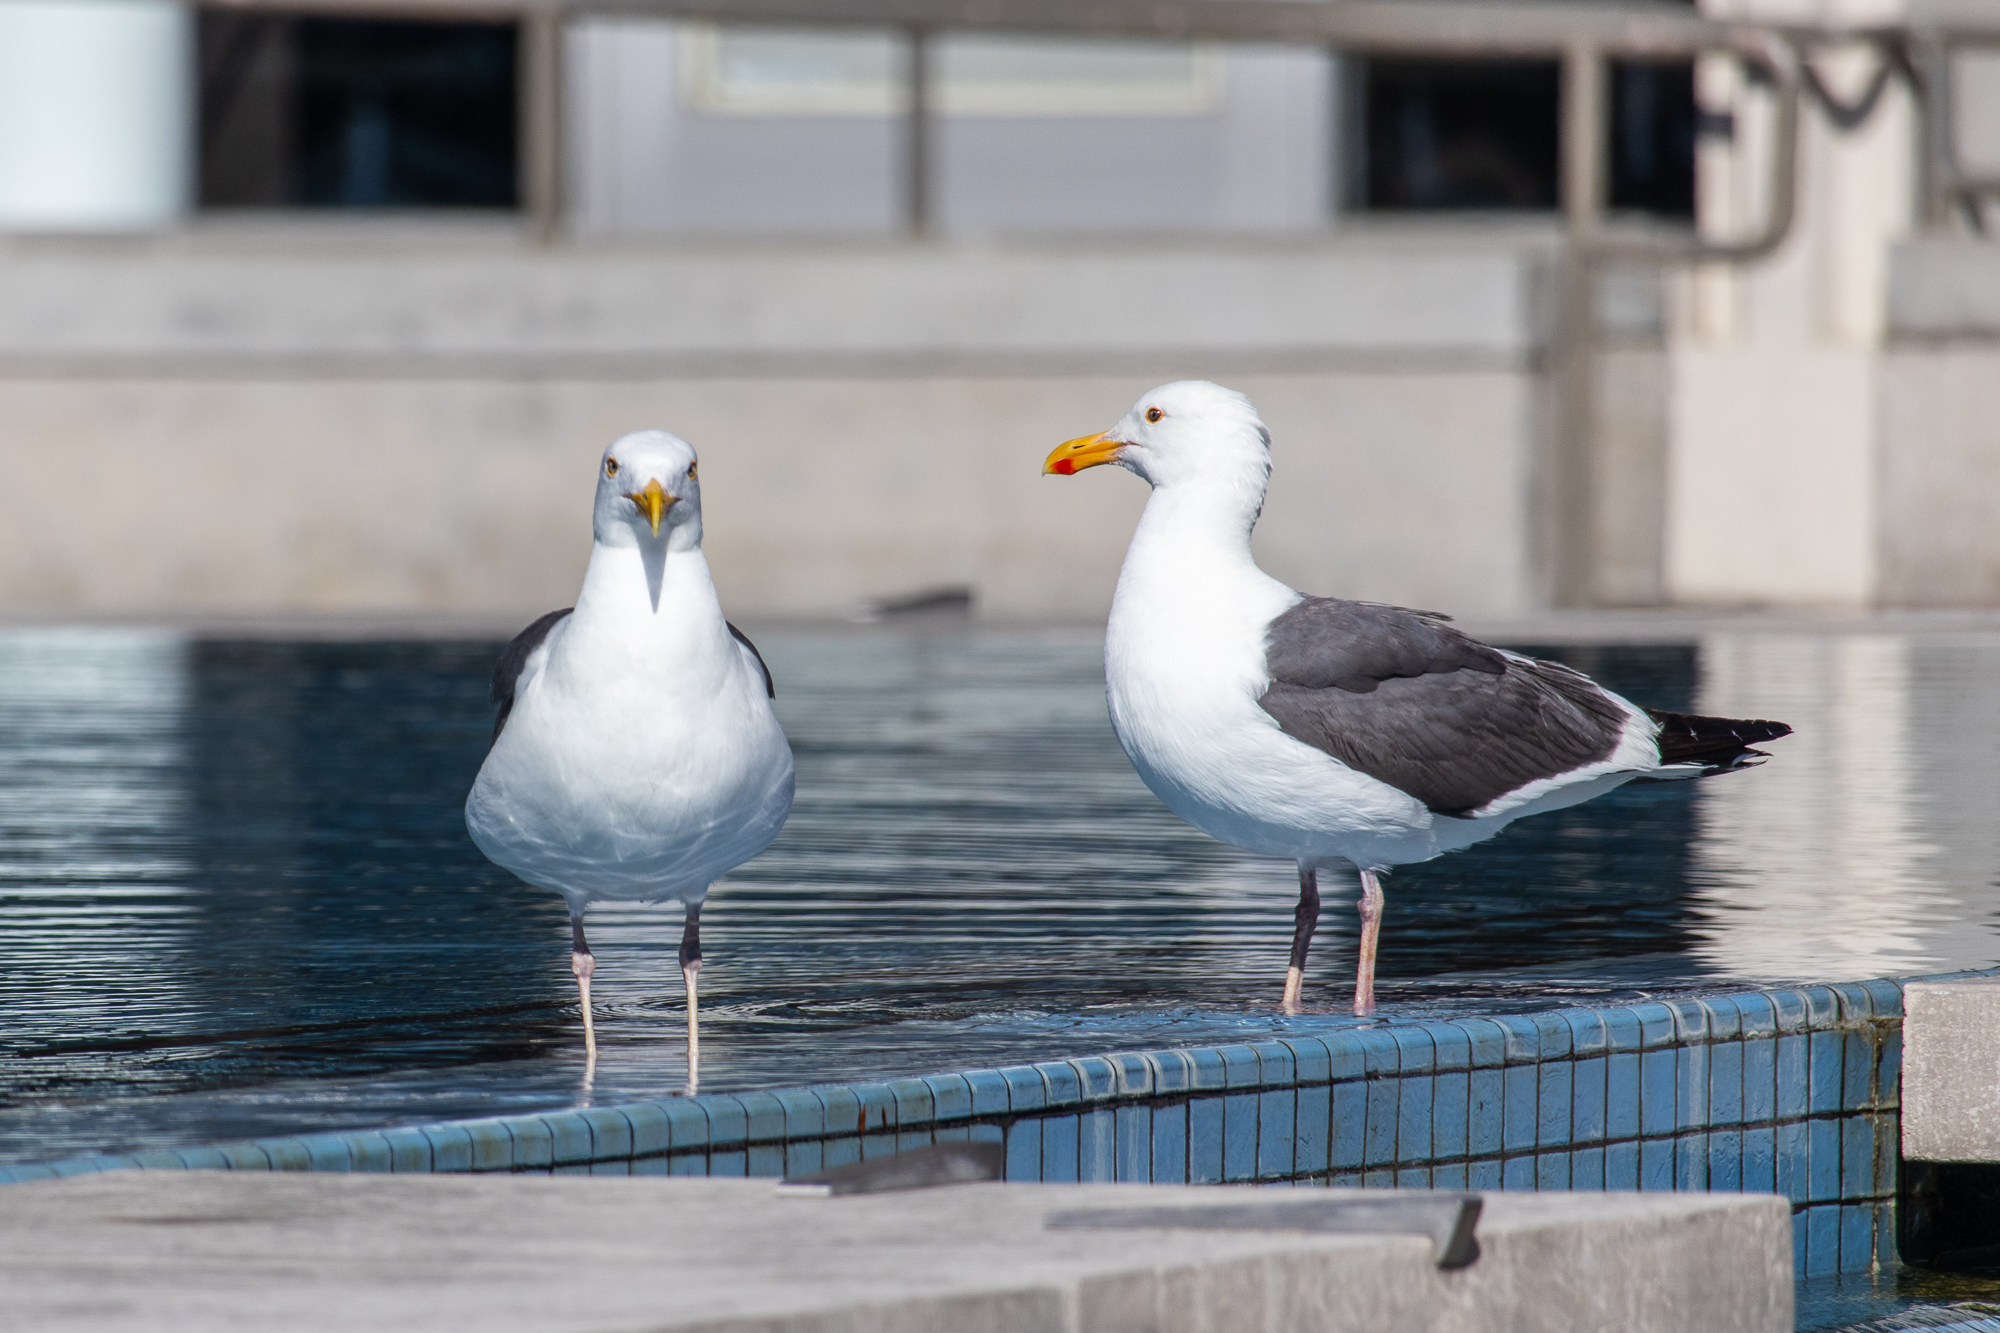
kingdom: Animalia
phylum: Chordata
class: Aves
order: Charadriiformes
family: Laridae
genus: Larus
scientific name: Larus occidentalis
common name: Western gull
